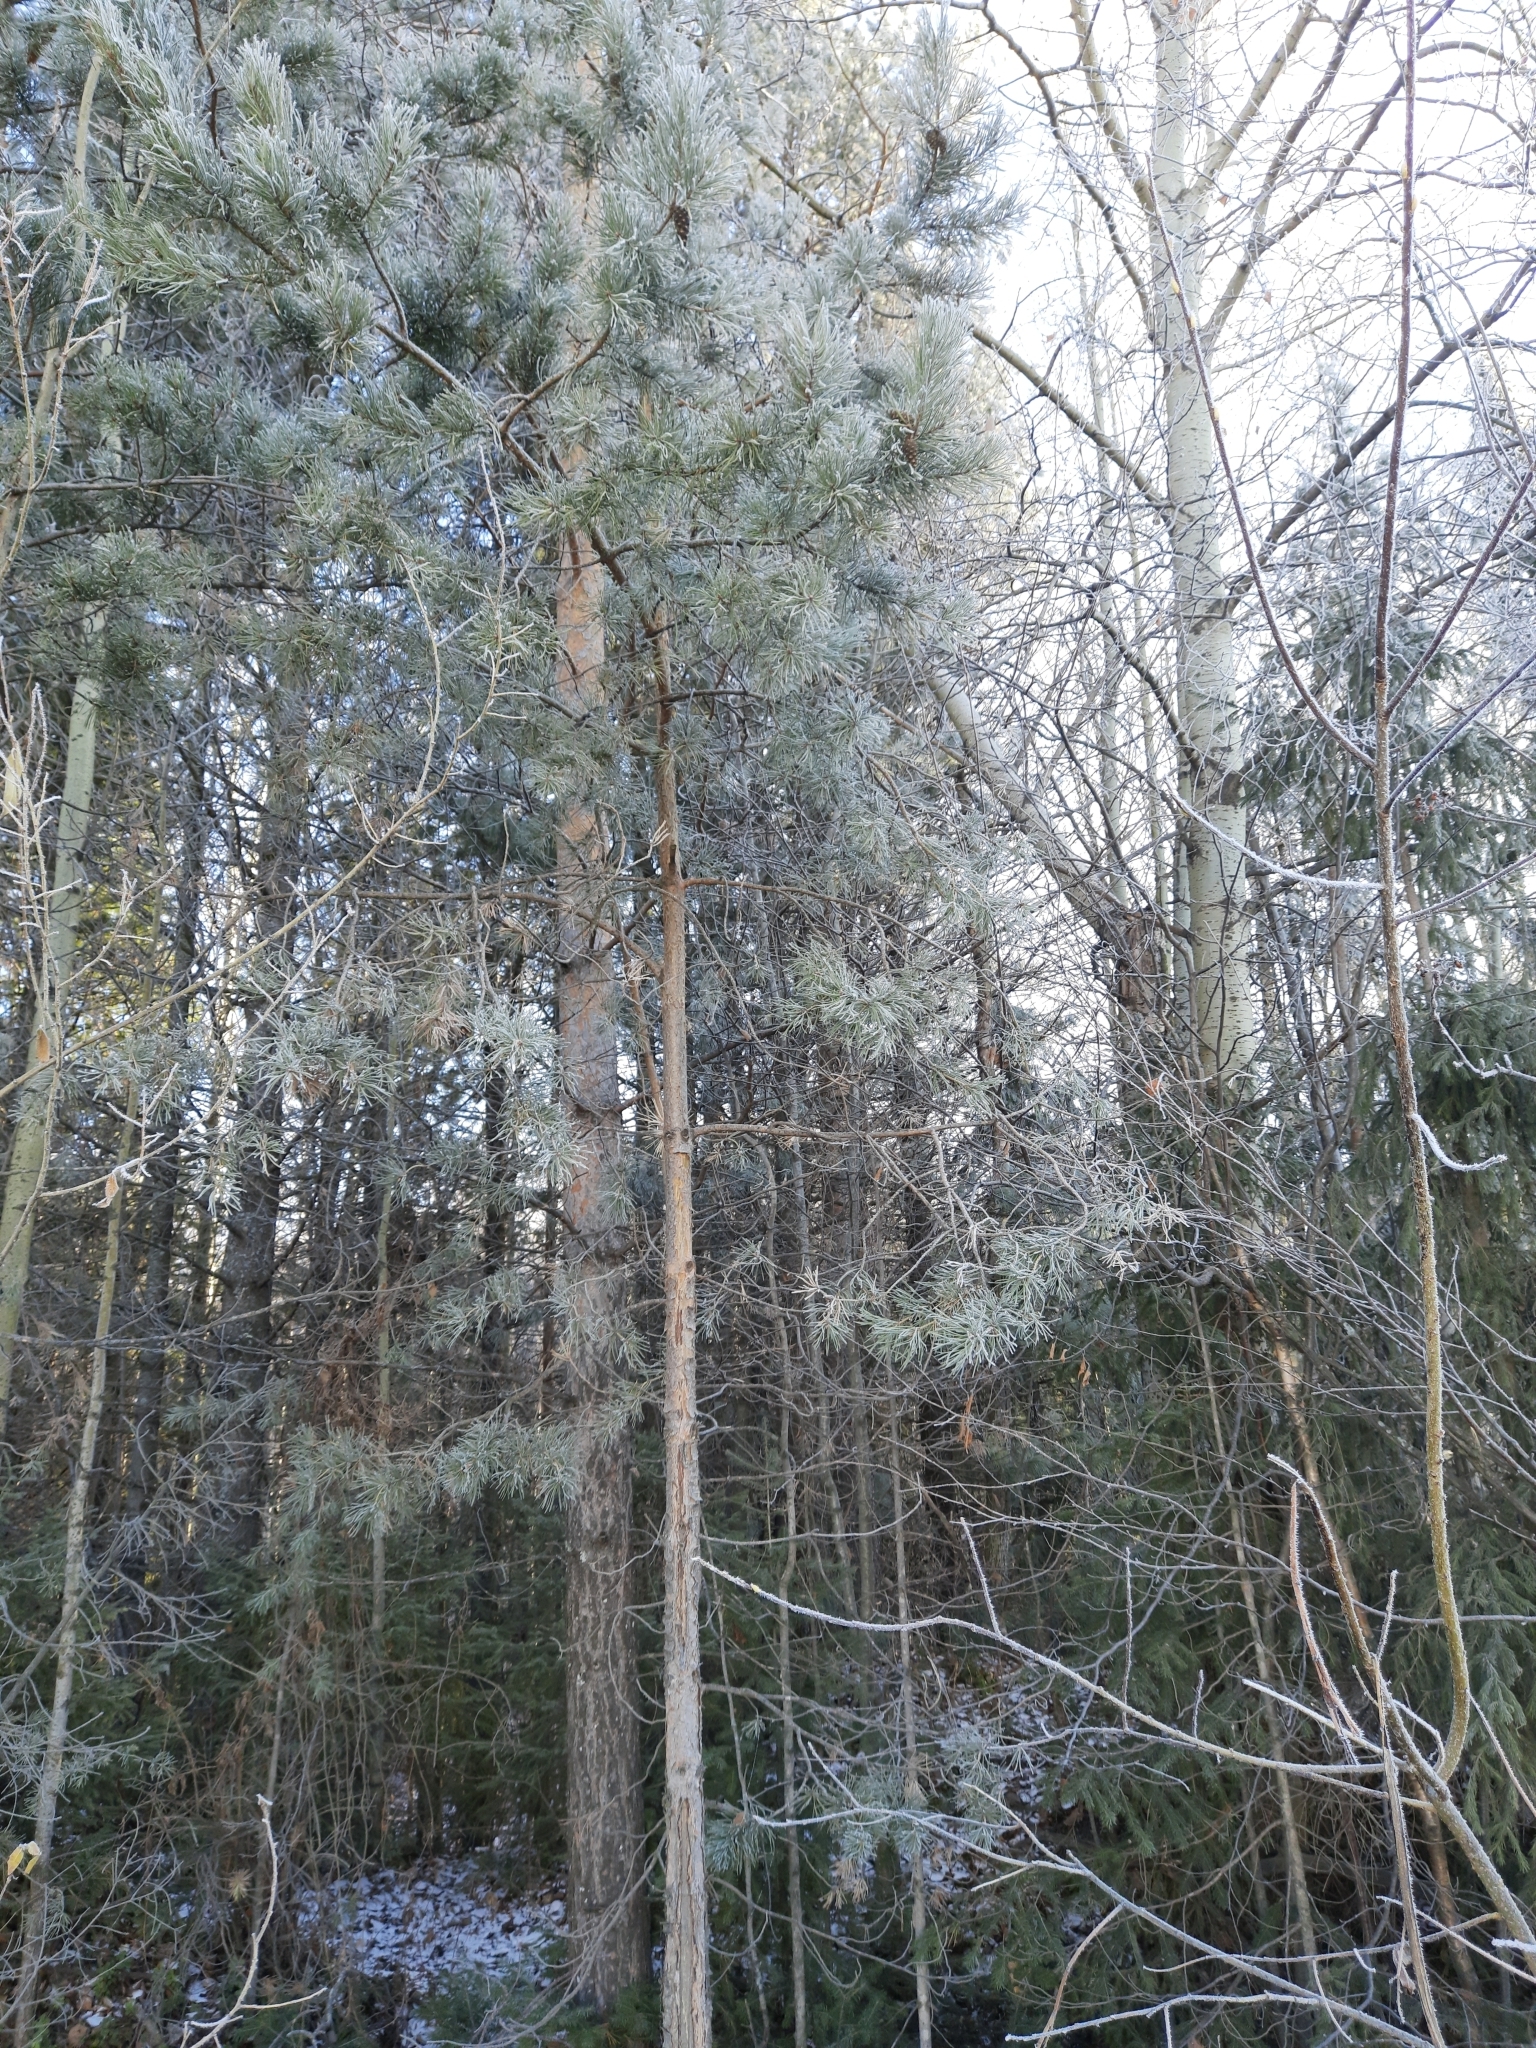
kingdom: Plantae
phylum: Tracheophyta
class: Pinopsida
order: Pinales
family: Pinaceae
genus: Pinus
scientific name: Pinus sylvestris
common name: Scots pine
